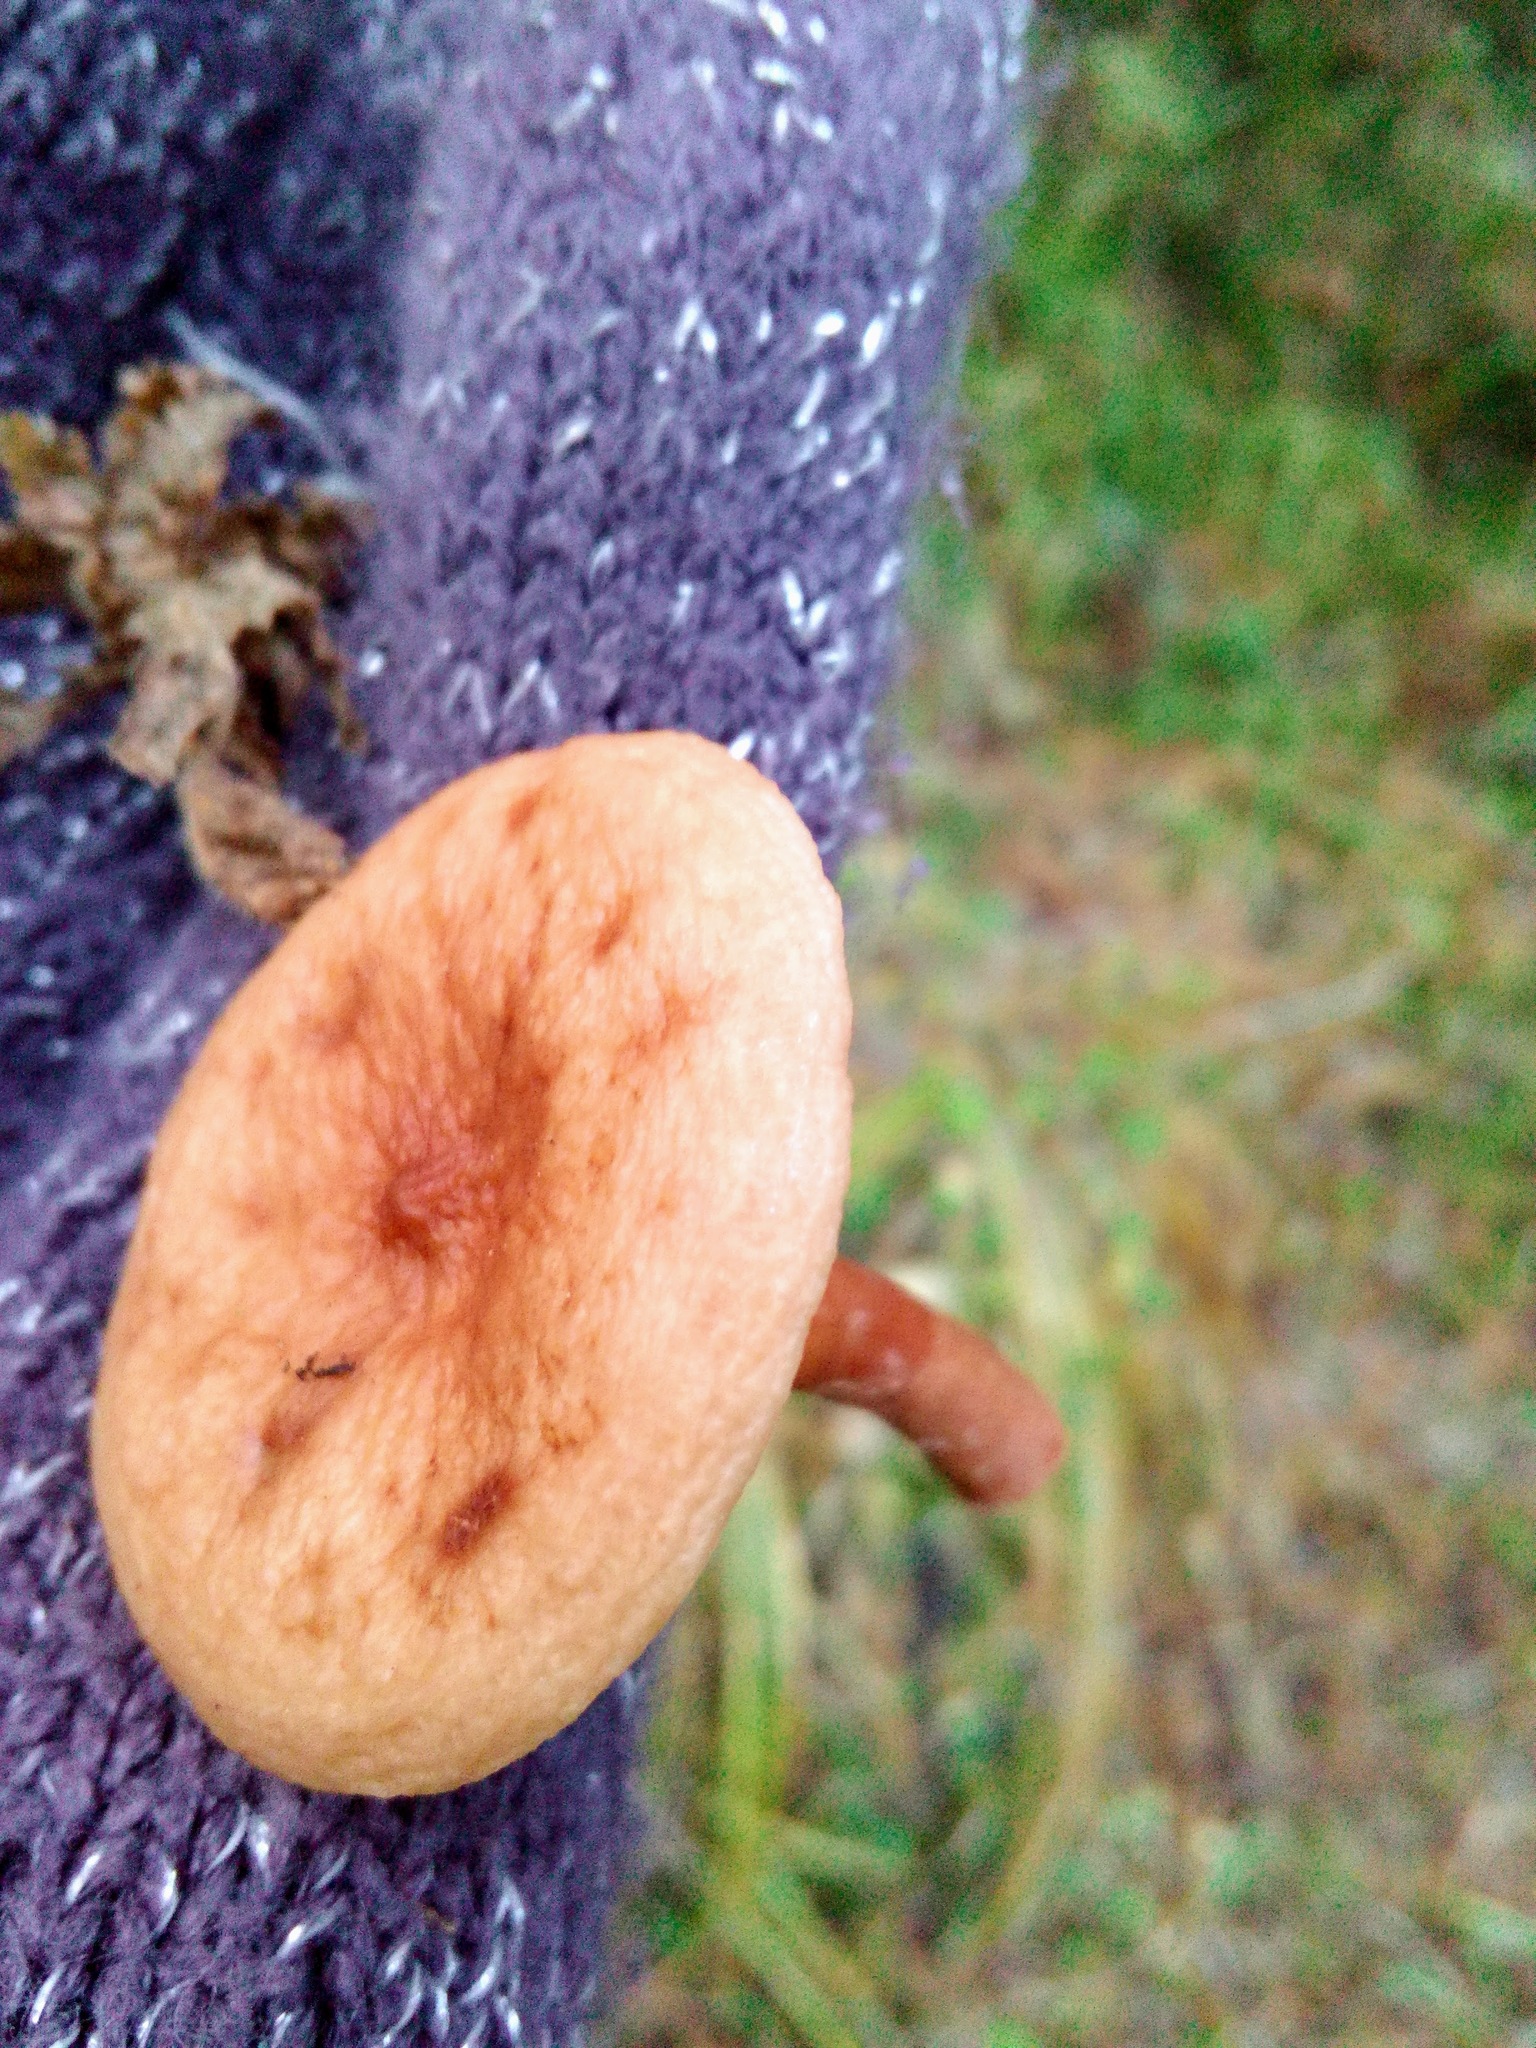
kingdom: Fungi
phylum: Basidiomycota
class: Agaricomycetes
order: Russulales
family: Russulaceae
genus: Lactarius
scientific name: Lactarius aurantiacus
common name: Orange milkcap
